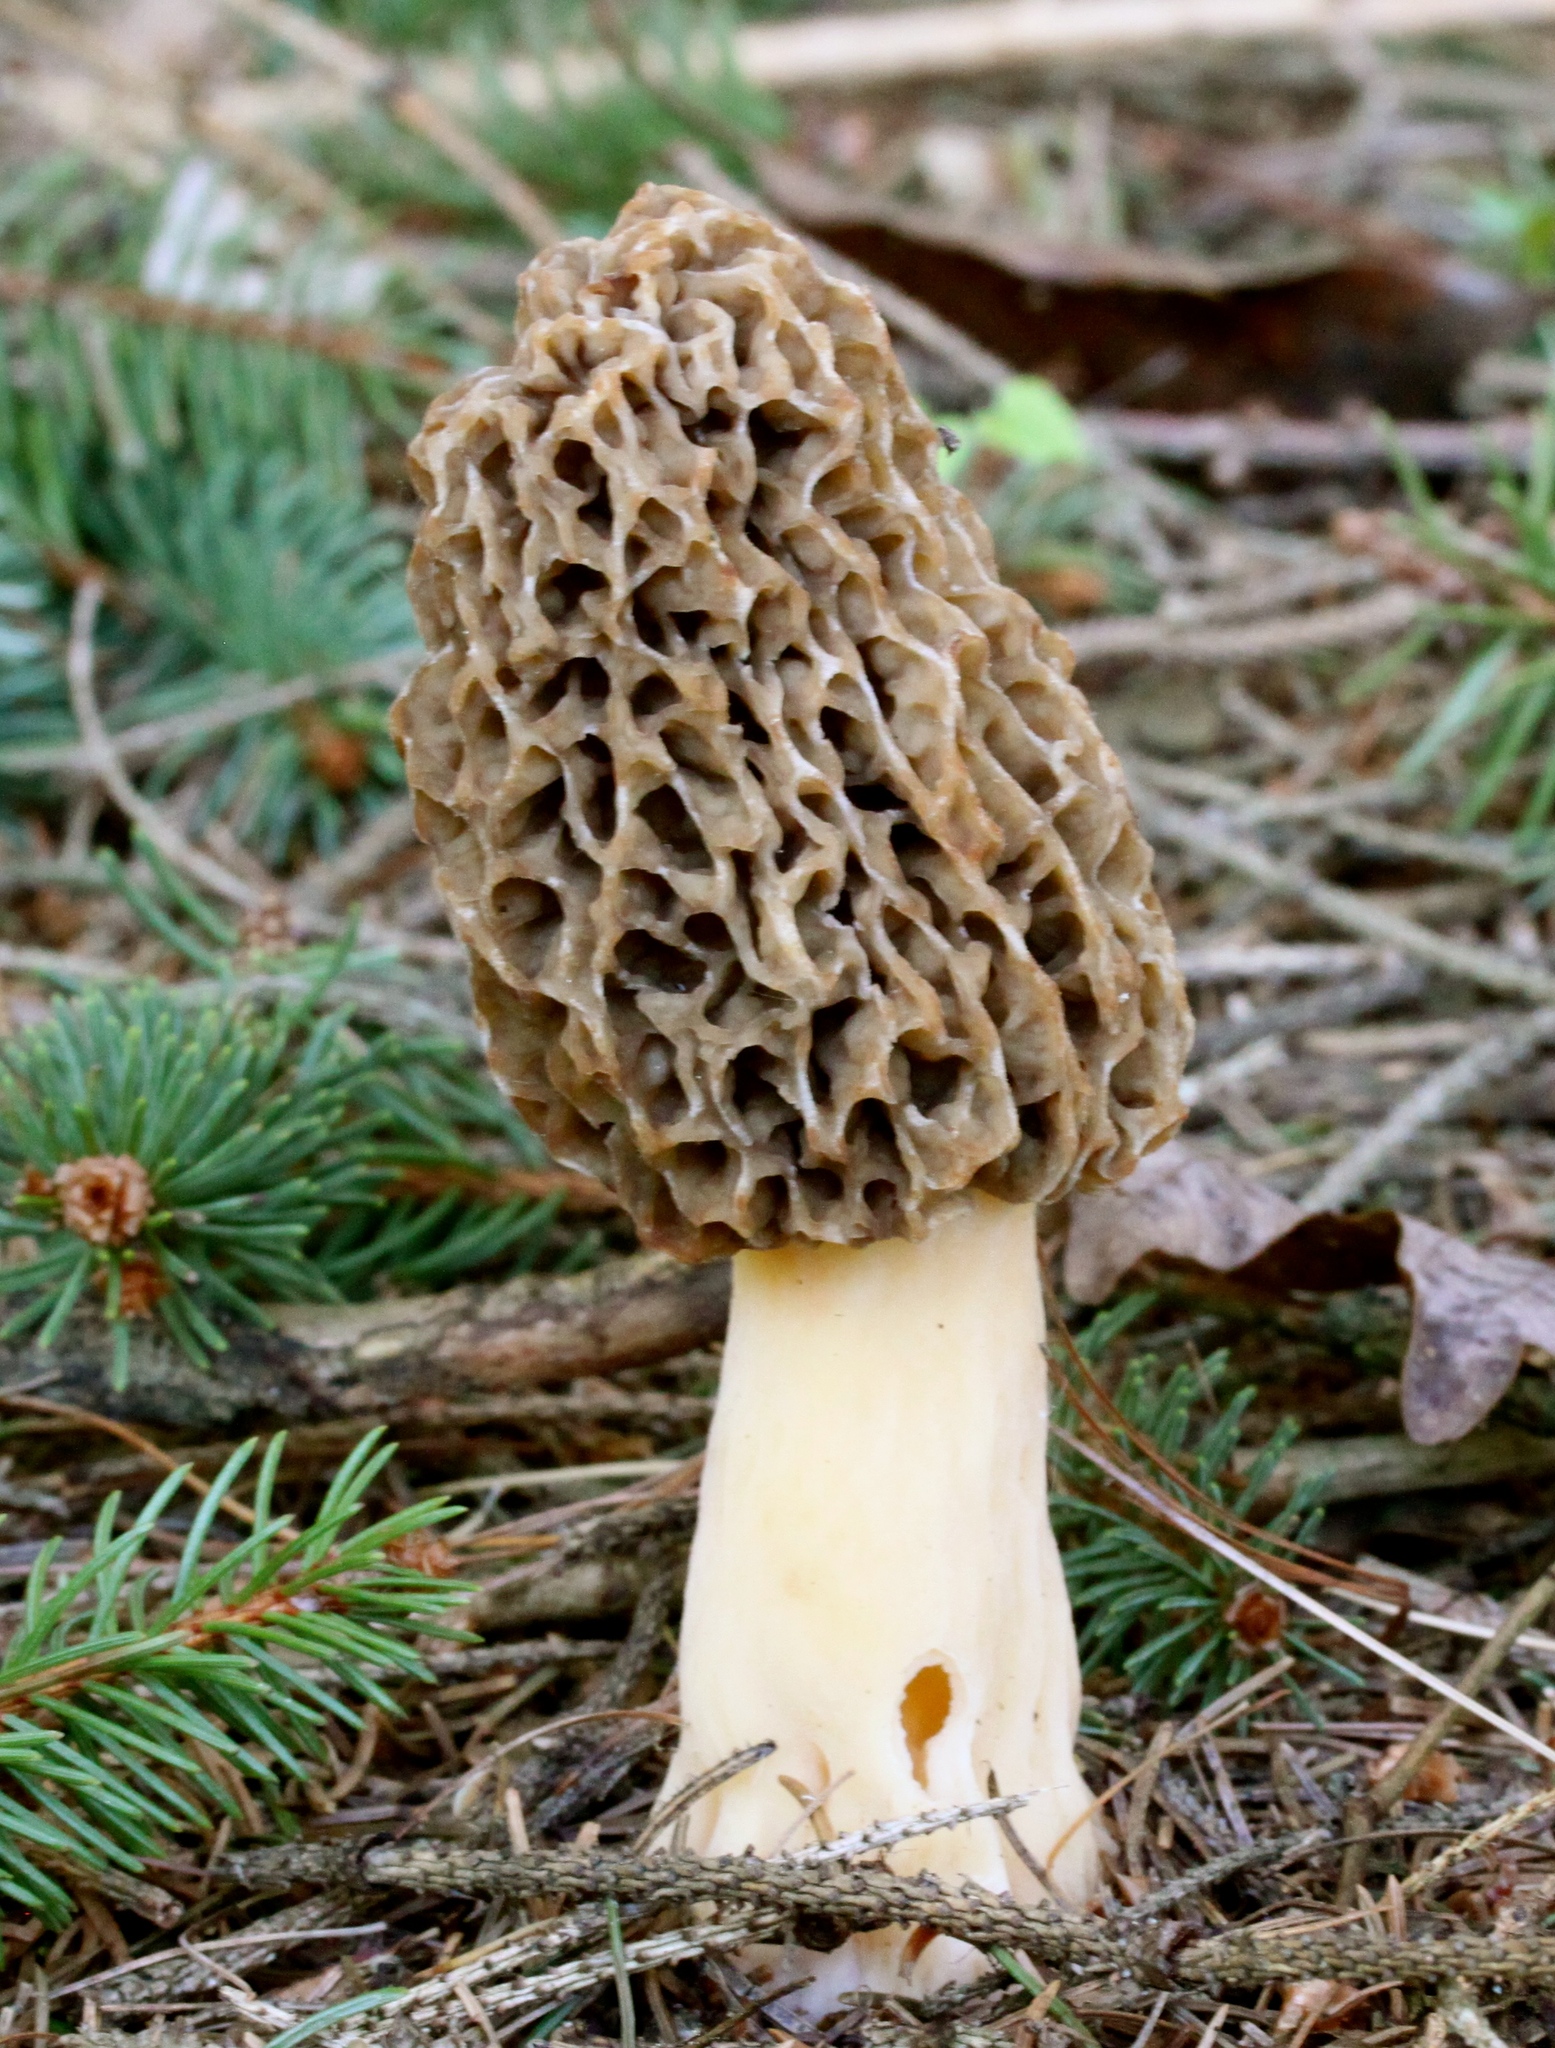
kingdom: Fungi
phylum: Ascomycota
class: Pezizomycetes
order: Pezizales
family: Morchellaceae
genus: Morchella
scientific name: Morchella americana
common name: White morel
